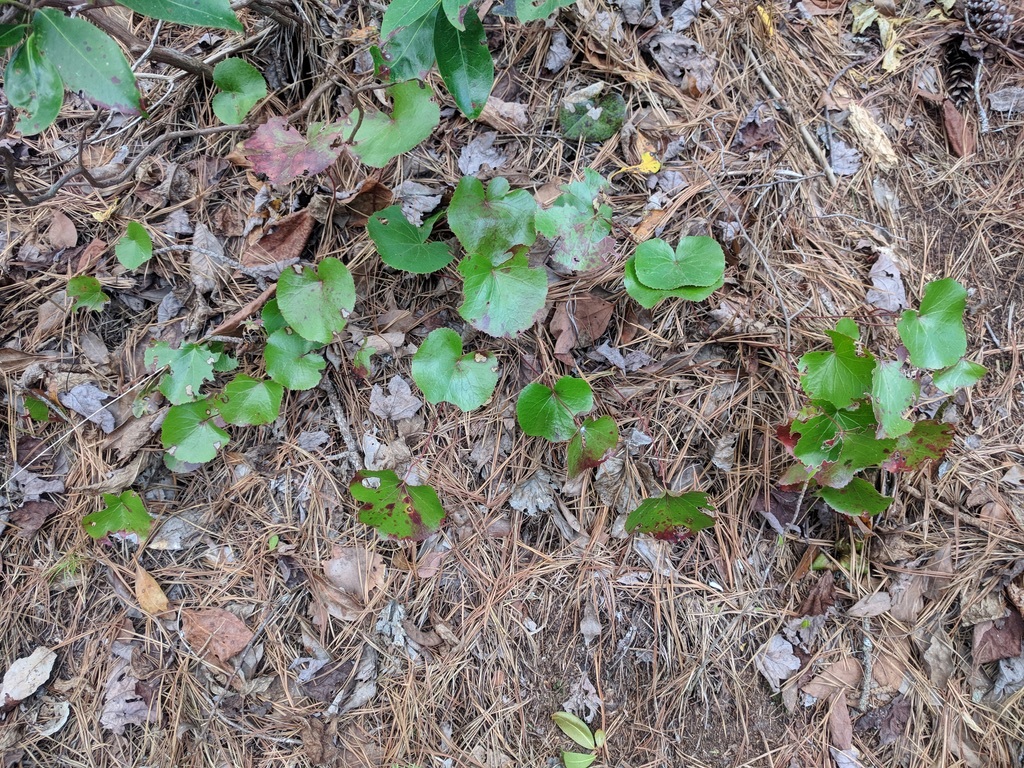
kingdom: Plantae
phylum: Tracheophyta
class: Magnoliopsida
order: Ericales
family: Diapensiaceae
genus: Galax
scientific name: Galax urceolata
